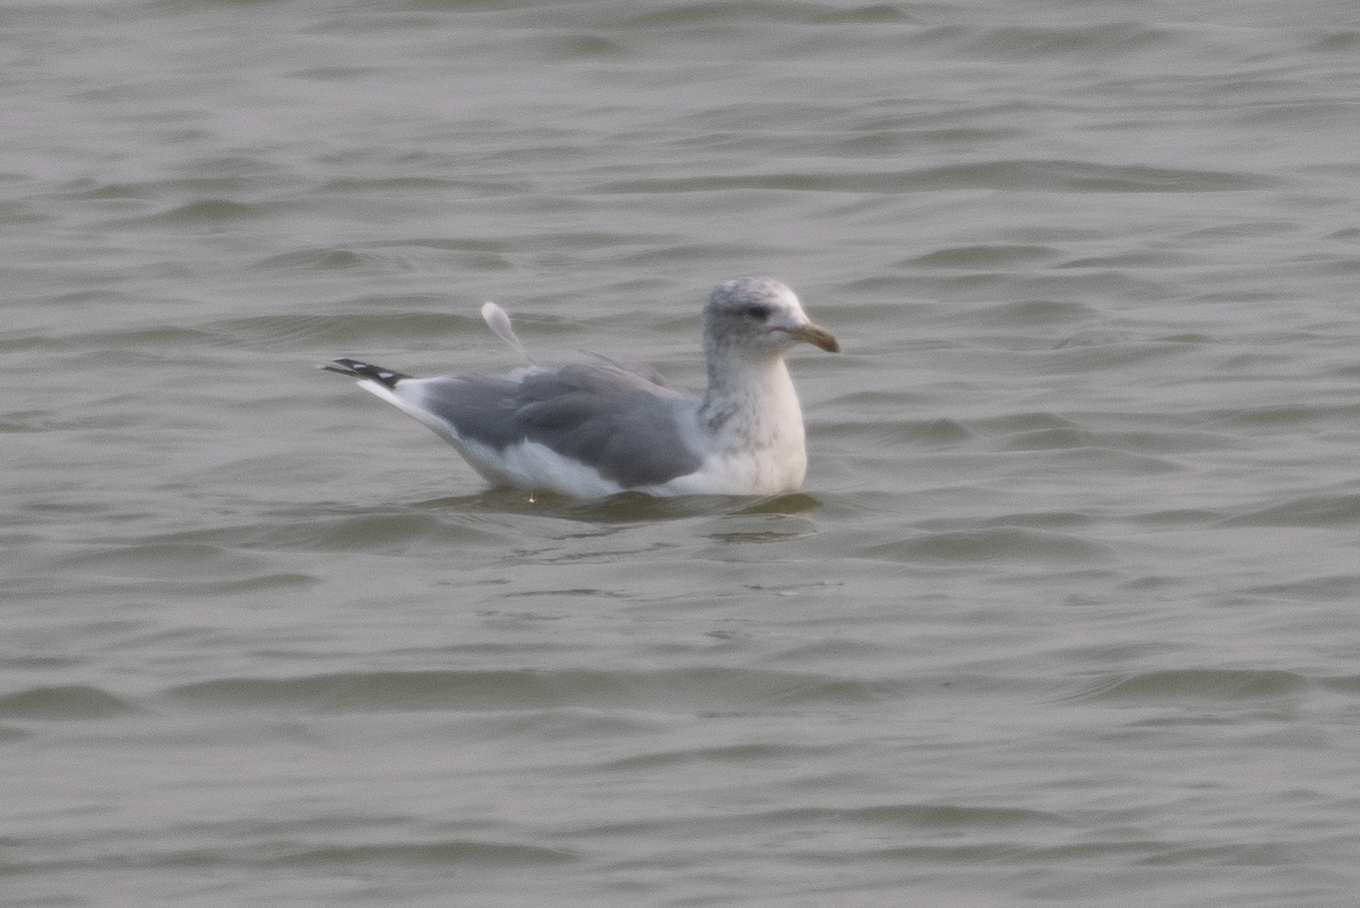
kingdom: Animalia
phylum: Chordata
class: Aves
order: Charadriiformes
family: Laridae
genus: Larus
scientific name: Larus californicus
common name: California gull
